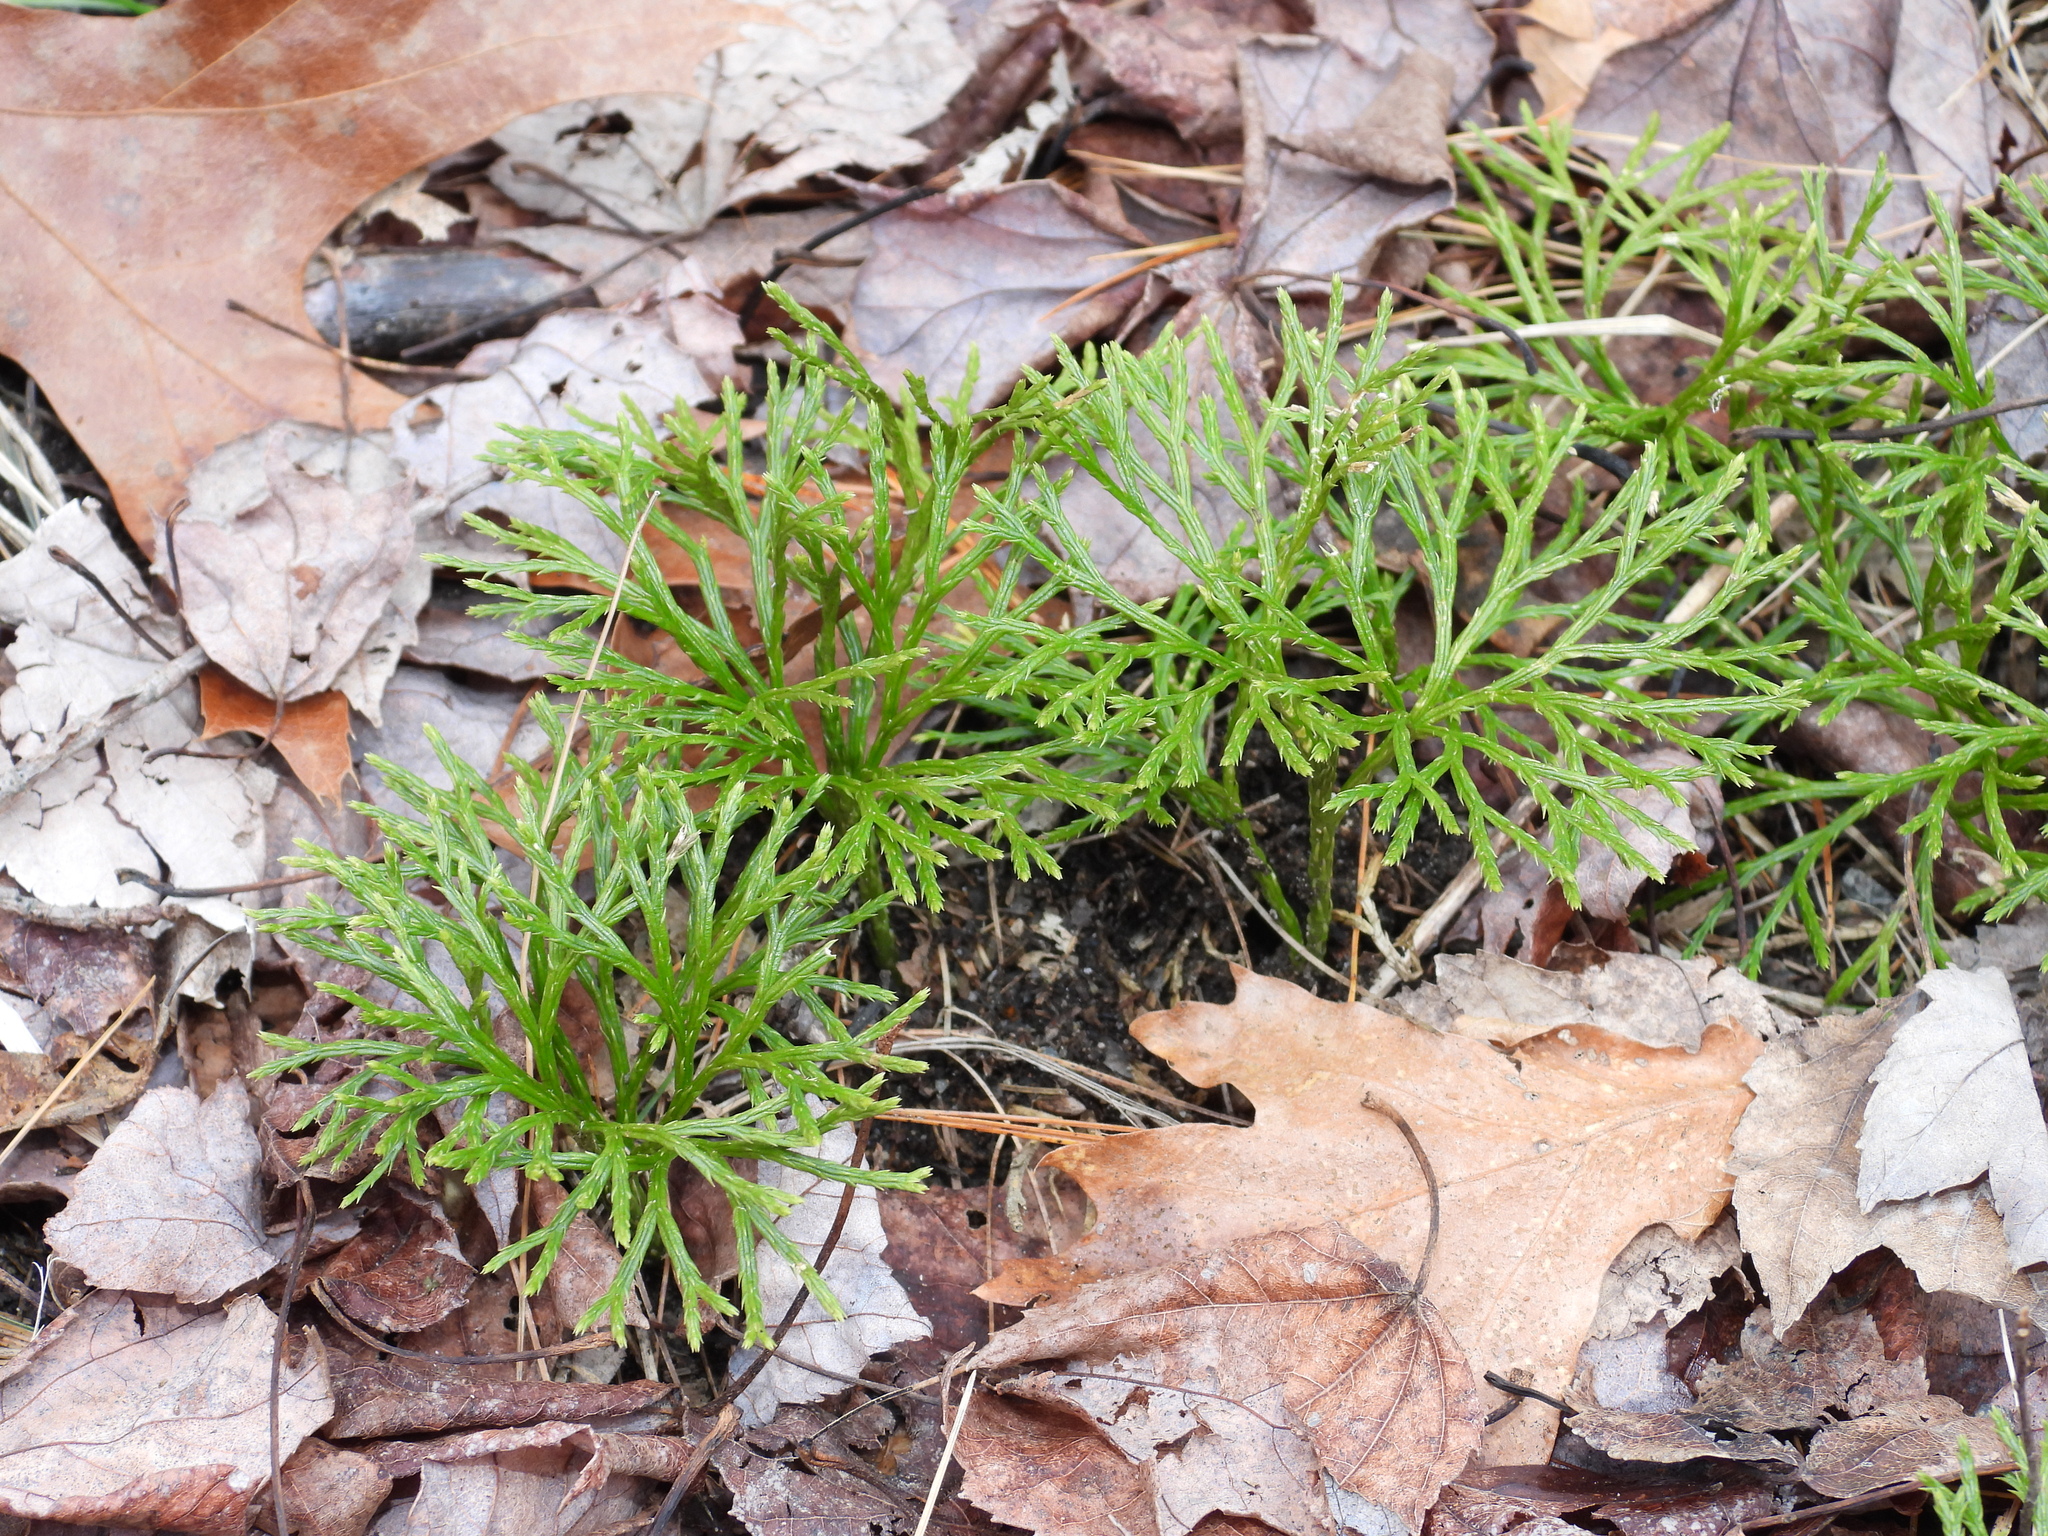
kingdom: Plantae
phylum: Tracheophyta
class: Lycopodiopsida
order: Lycopodiales
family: Lycopodiaceae
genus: Diphasiastrum
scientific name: Diphasiastrum tristachyum
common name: Blue ground-cedar
